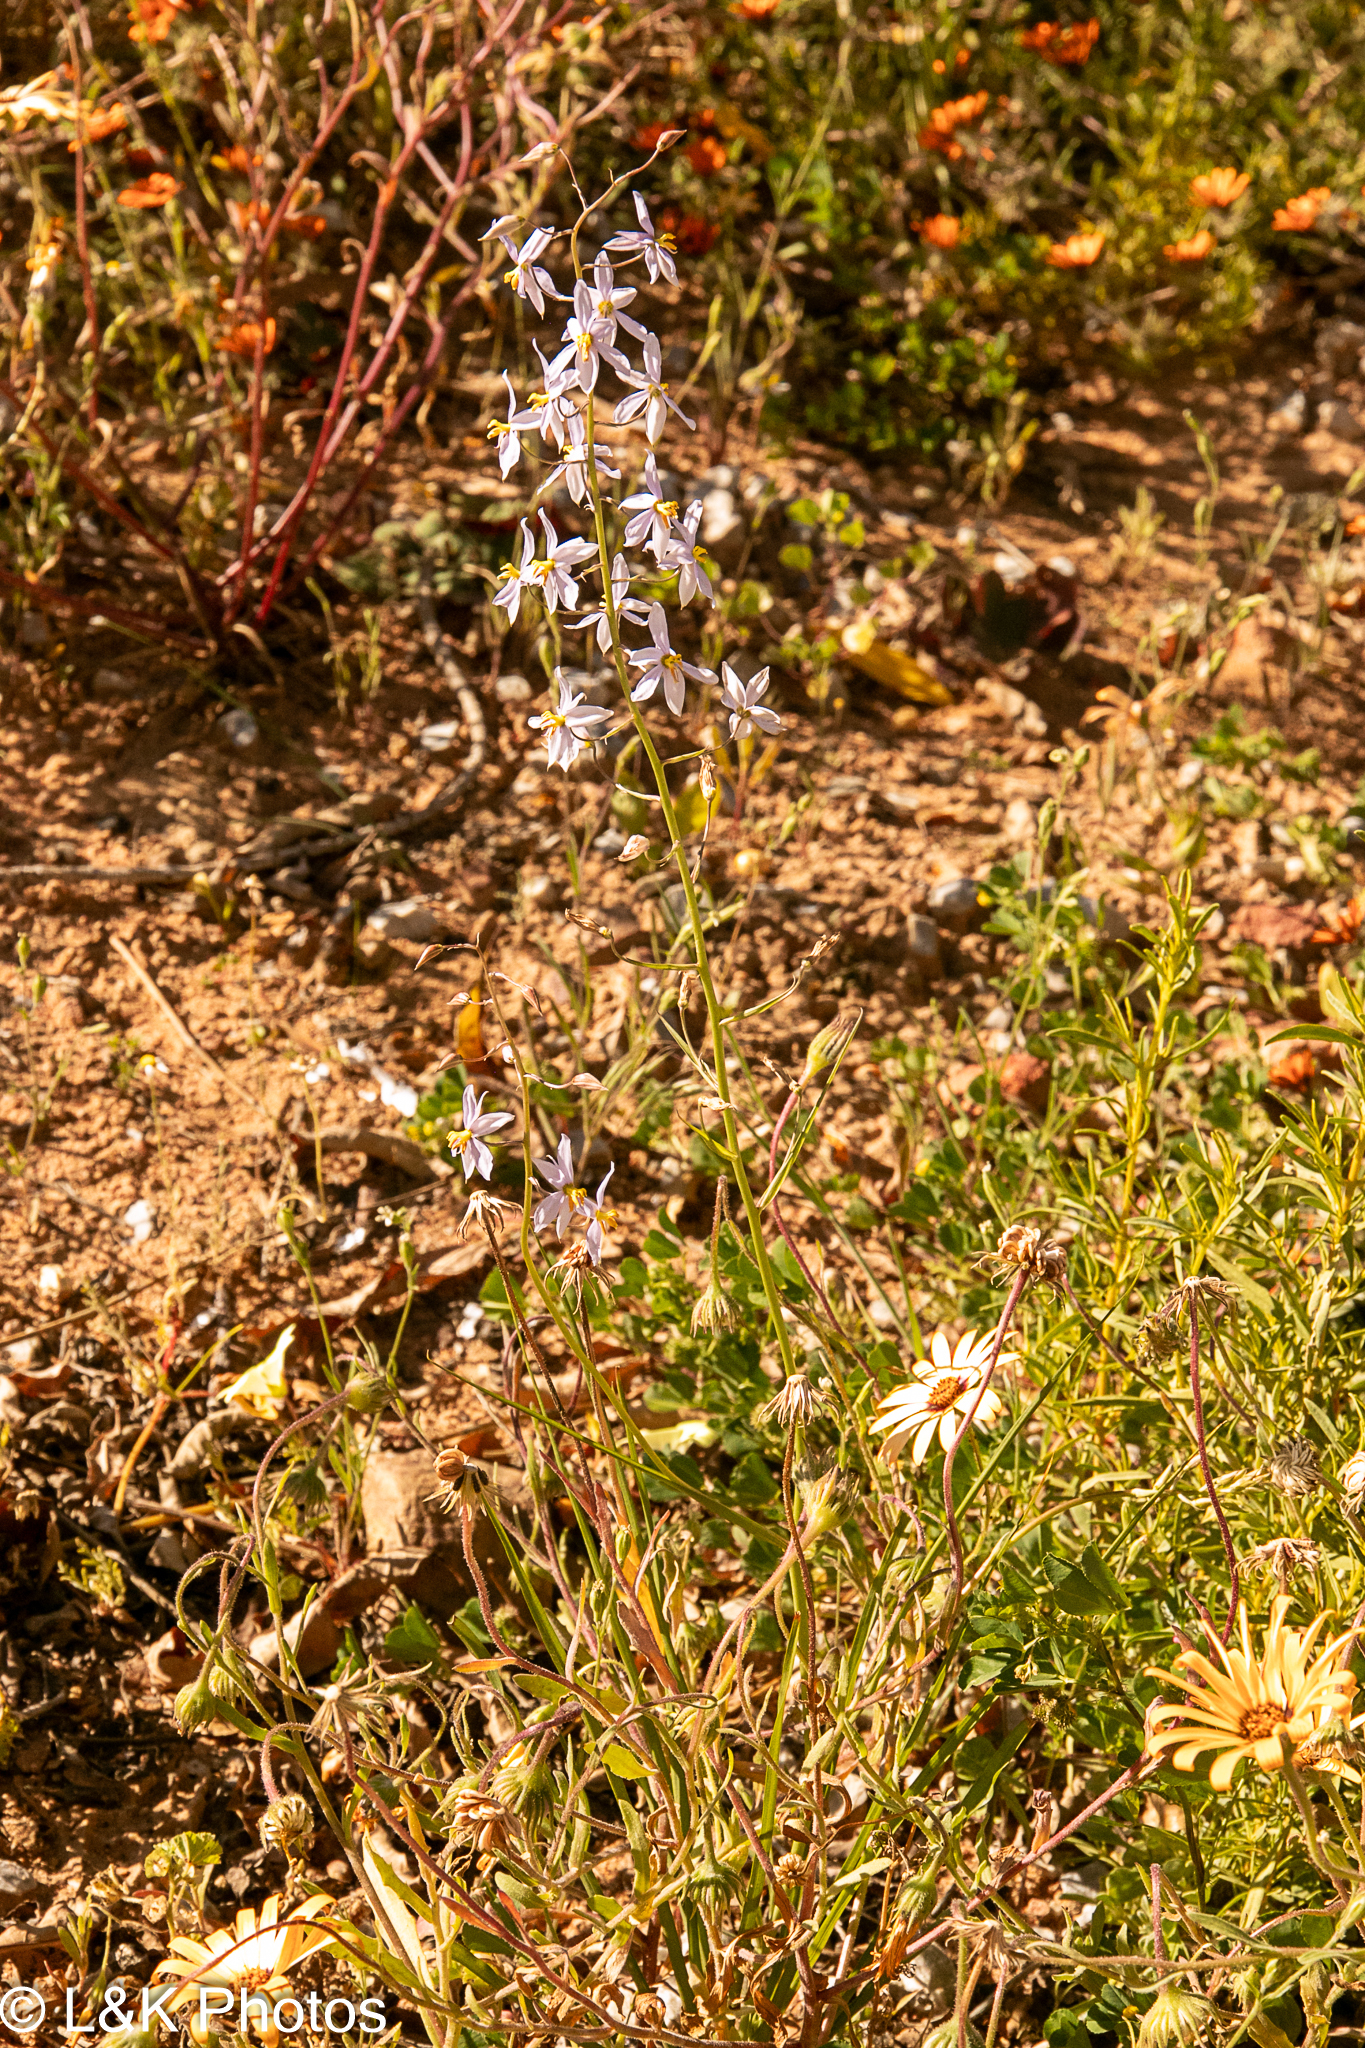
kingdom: Plantae
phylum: Tracheophyta
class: Liliopsida
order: Asparagales
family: Tecophilaeaceae
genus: Cyanella
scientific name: Cyanella hyacinthoides
